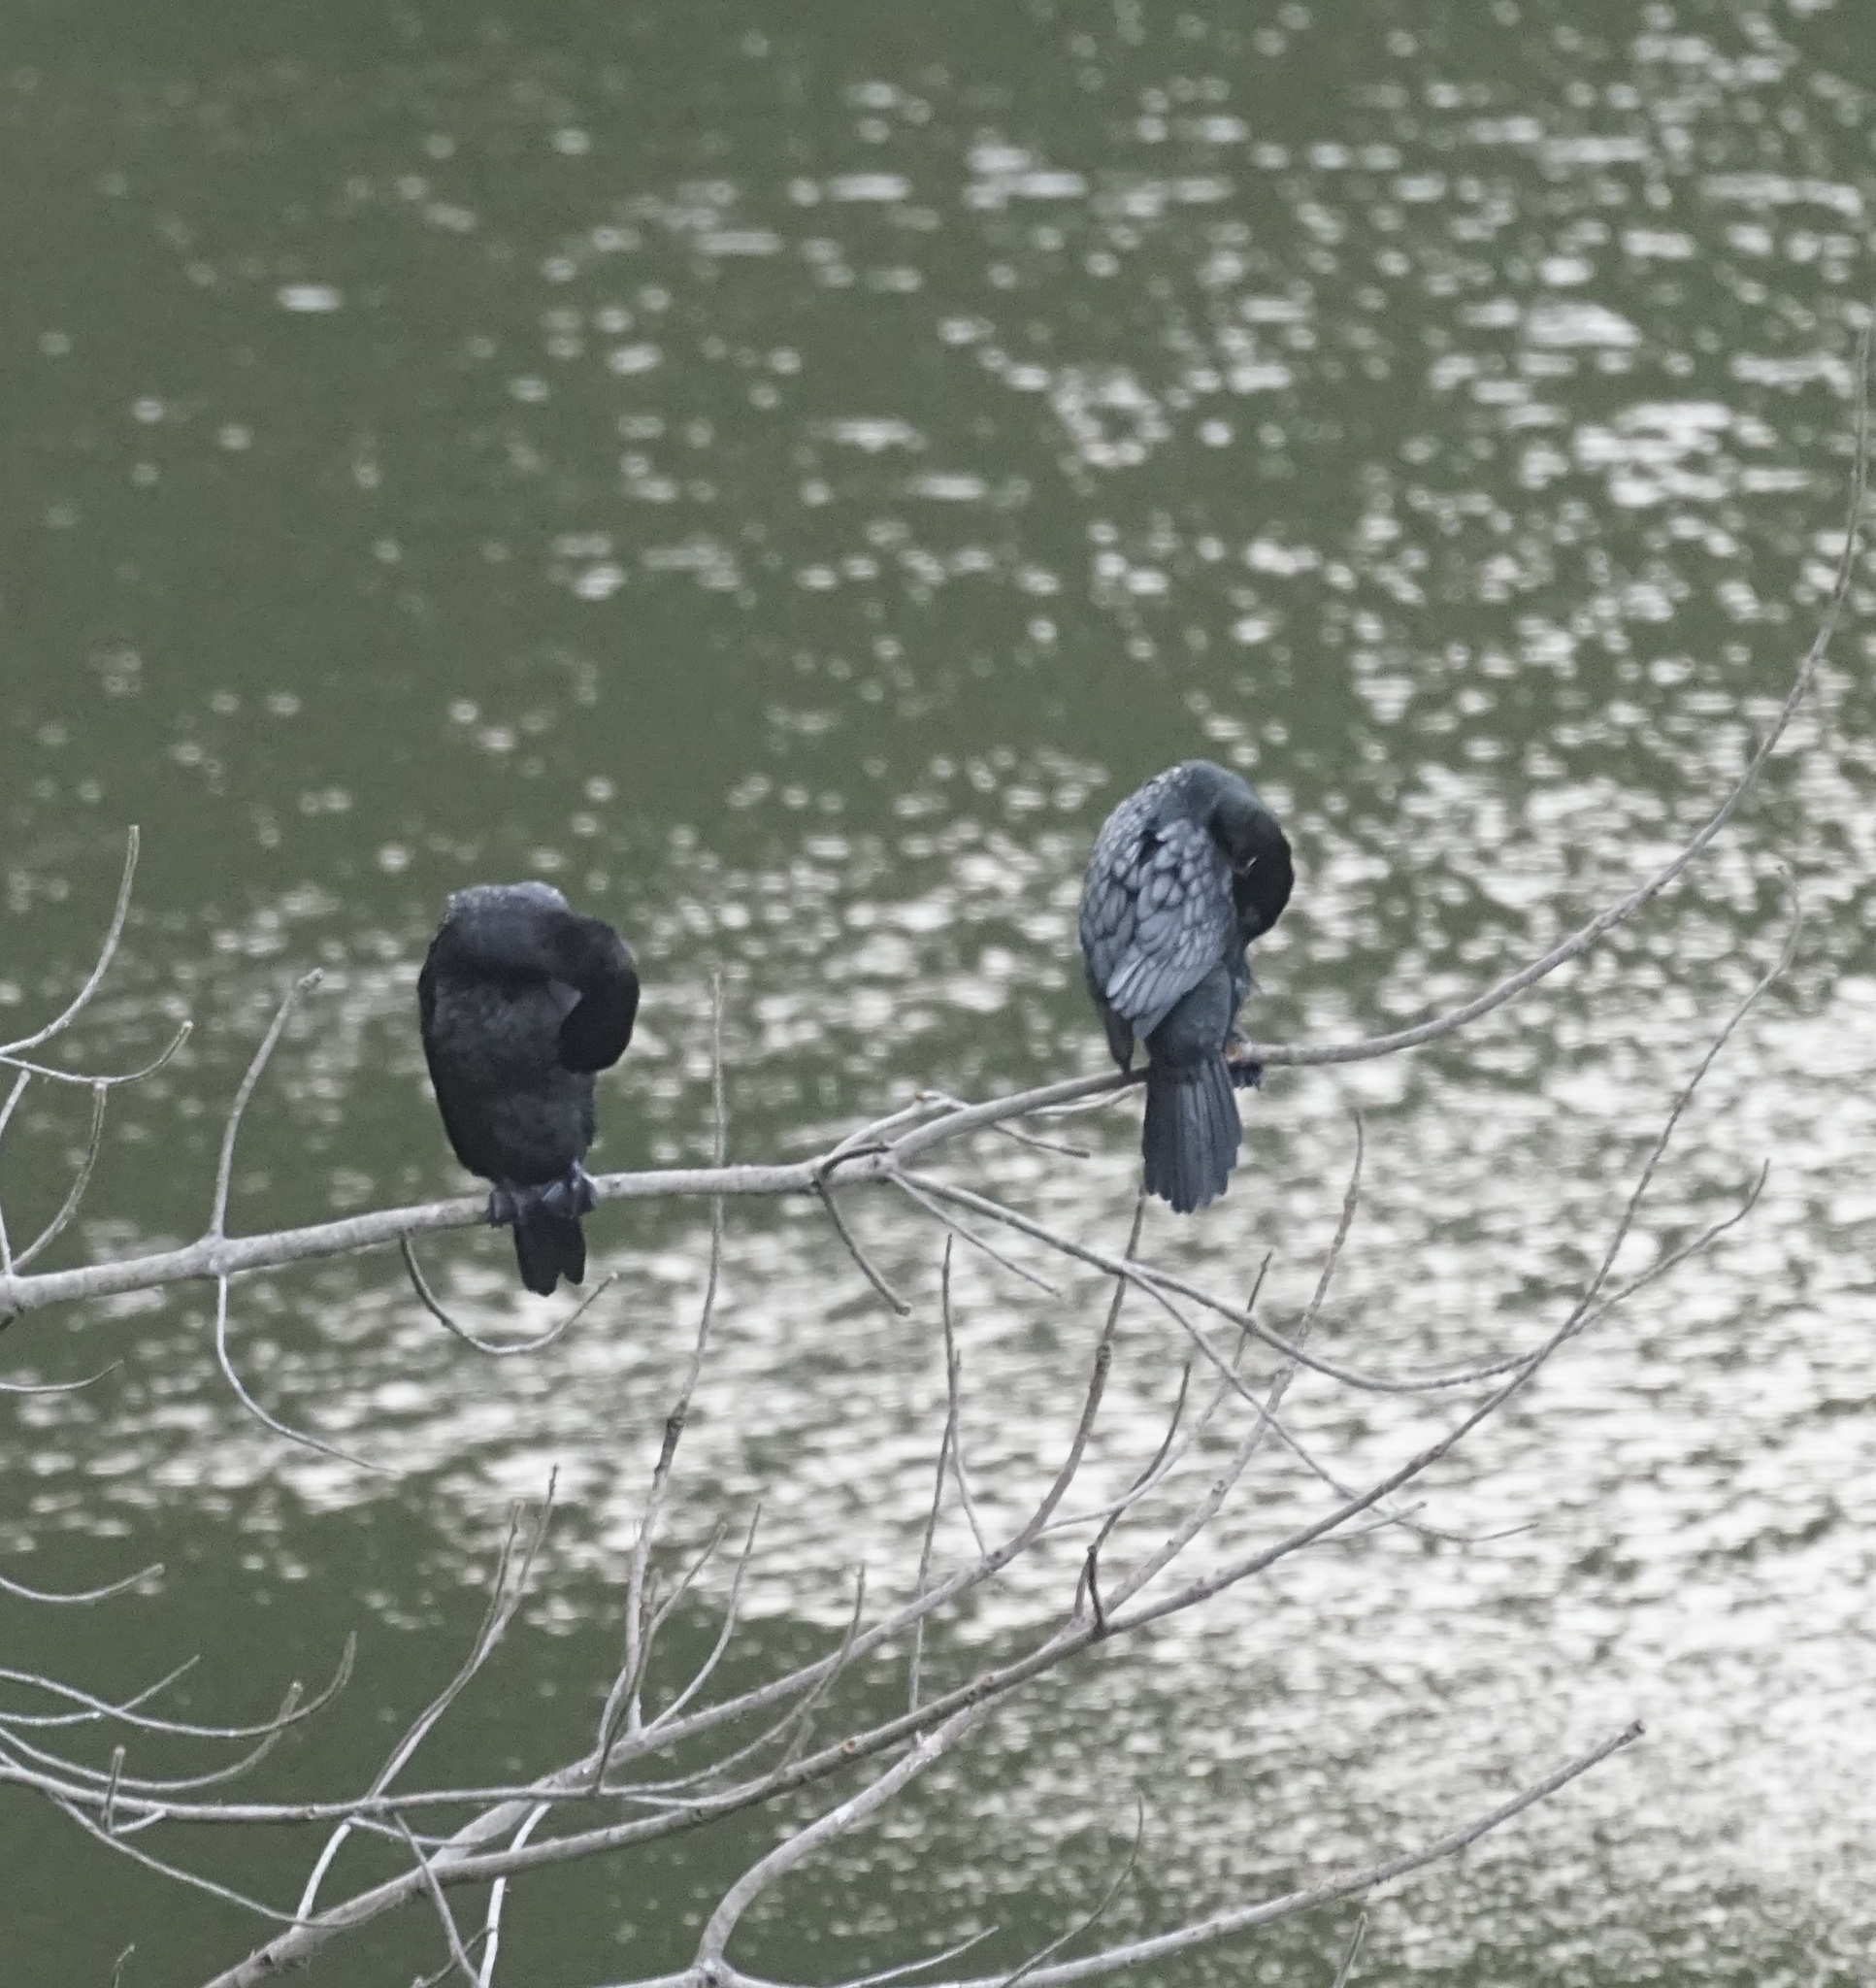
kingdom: Animalia
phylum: Chordata
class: Aves
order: Suliformes
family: Phalacrocoracidae
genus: Phalacrocorax
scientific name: Phalacrocorax sulcirostris
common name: Little black cormorant
